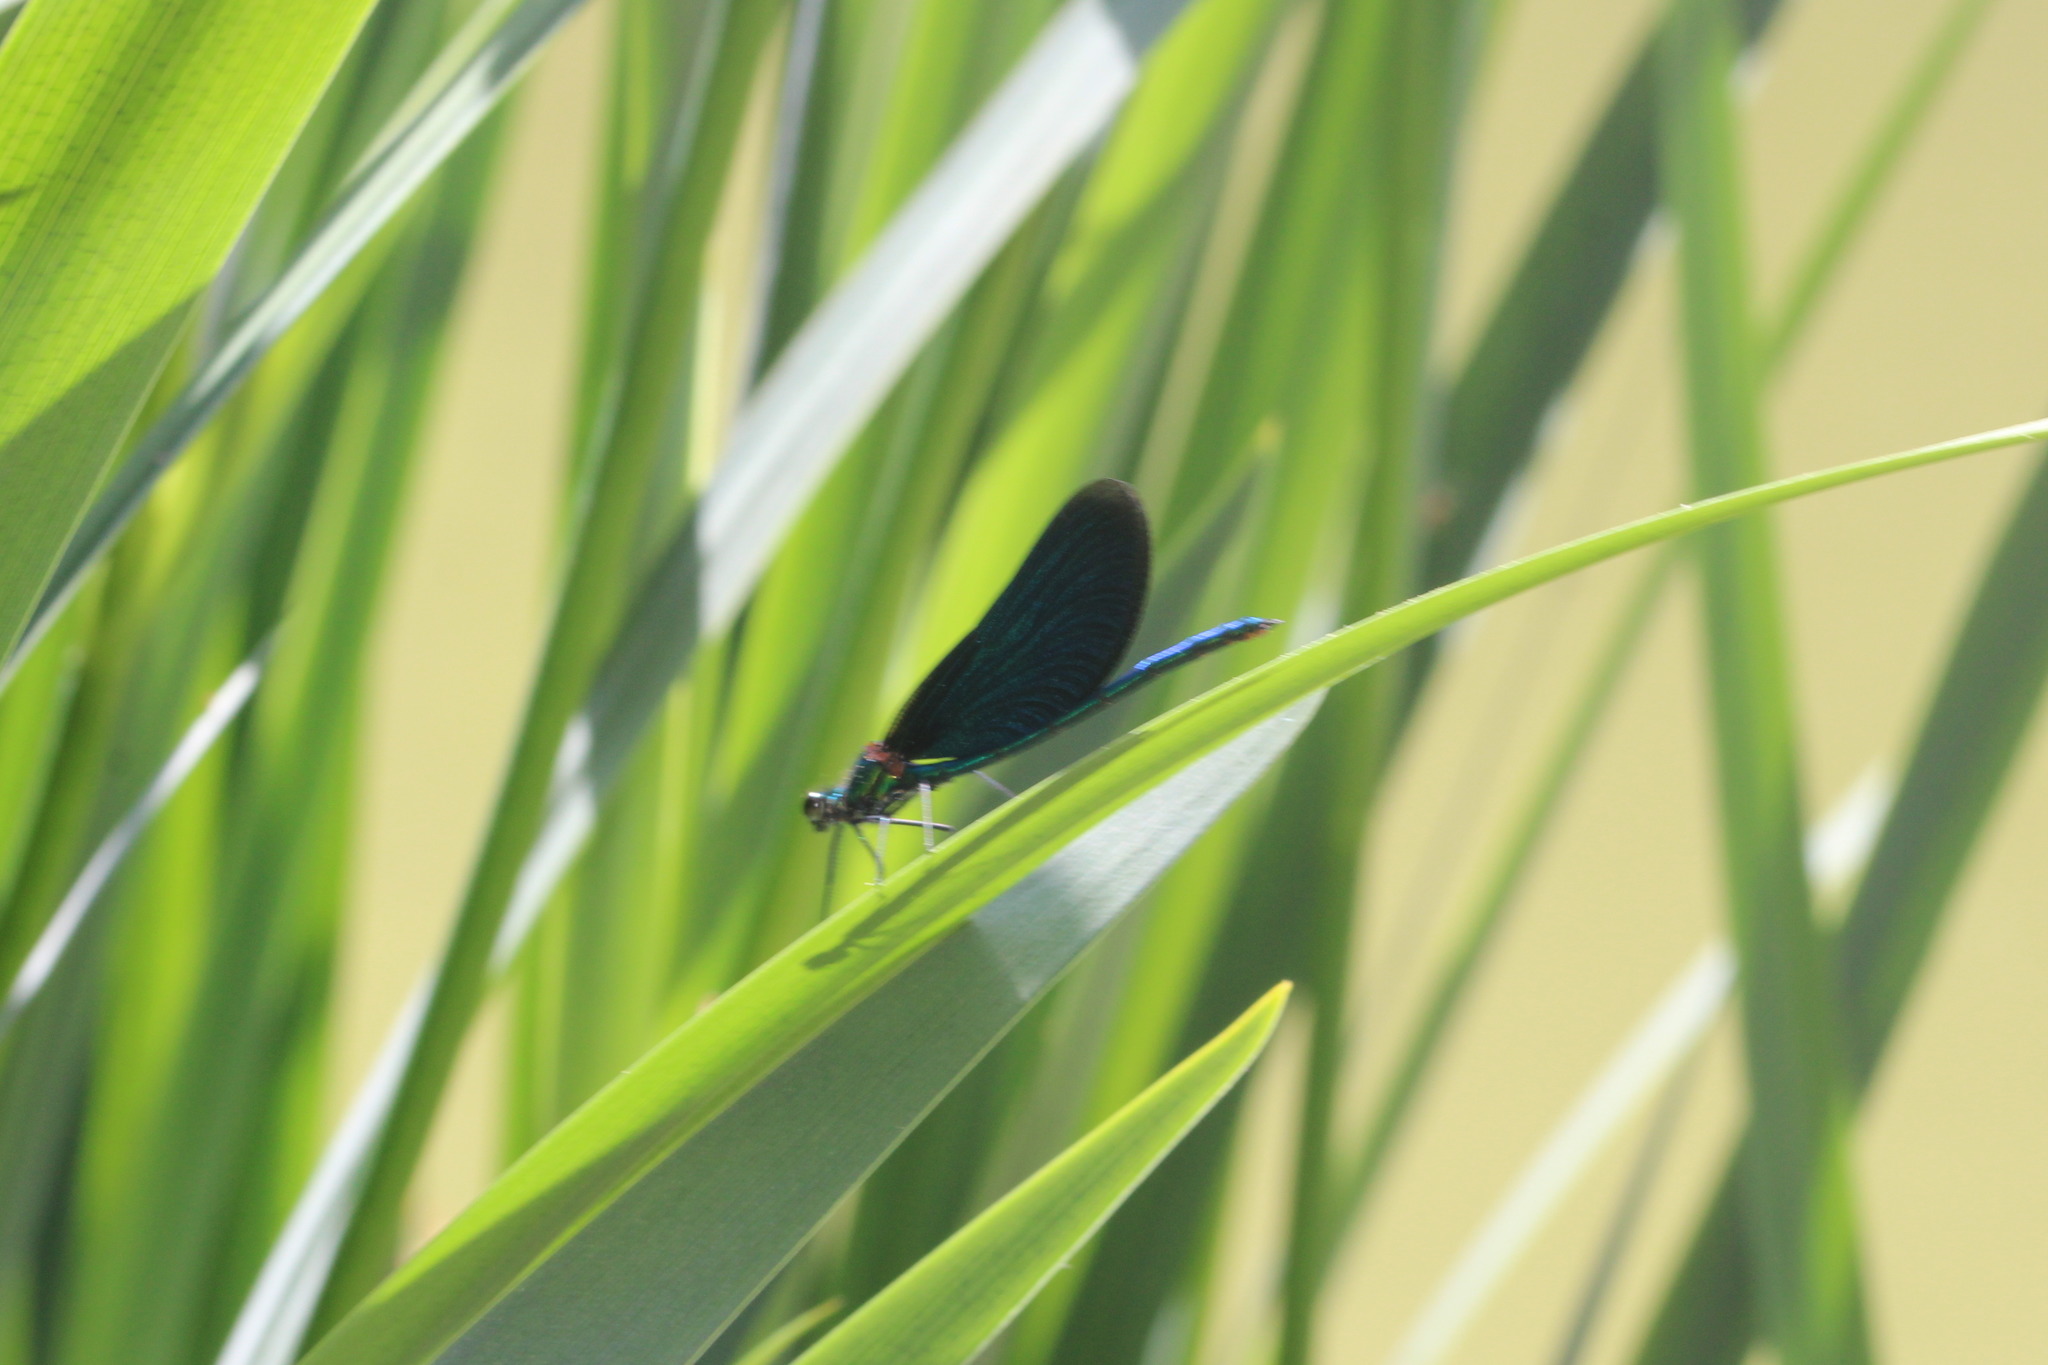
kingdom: Animalia
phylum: Arthropoda
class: Insecta
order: Odonata
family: Calopterygidae
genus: Calopteryx
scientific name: Calopteryx virgo
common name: Beautiful demoiselle
